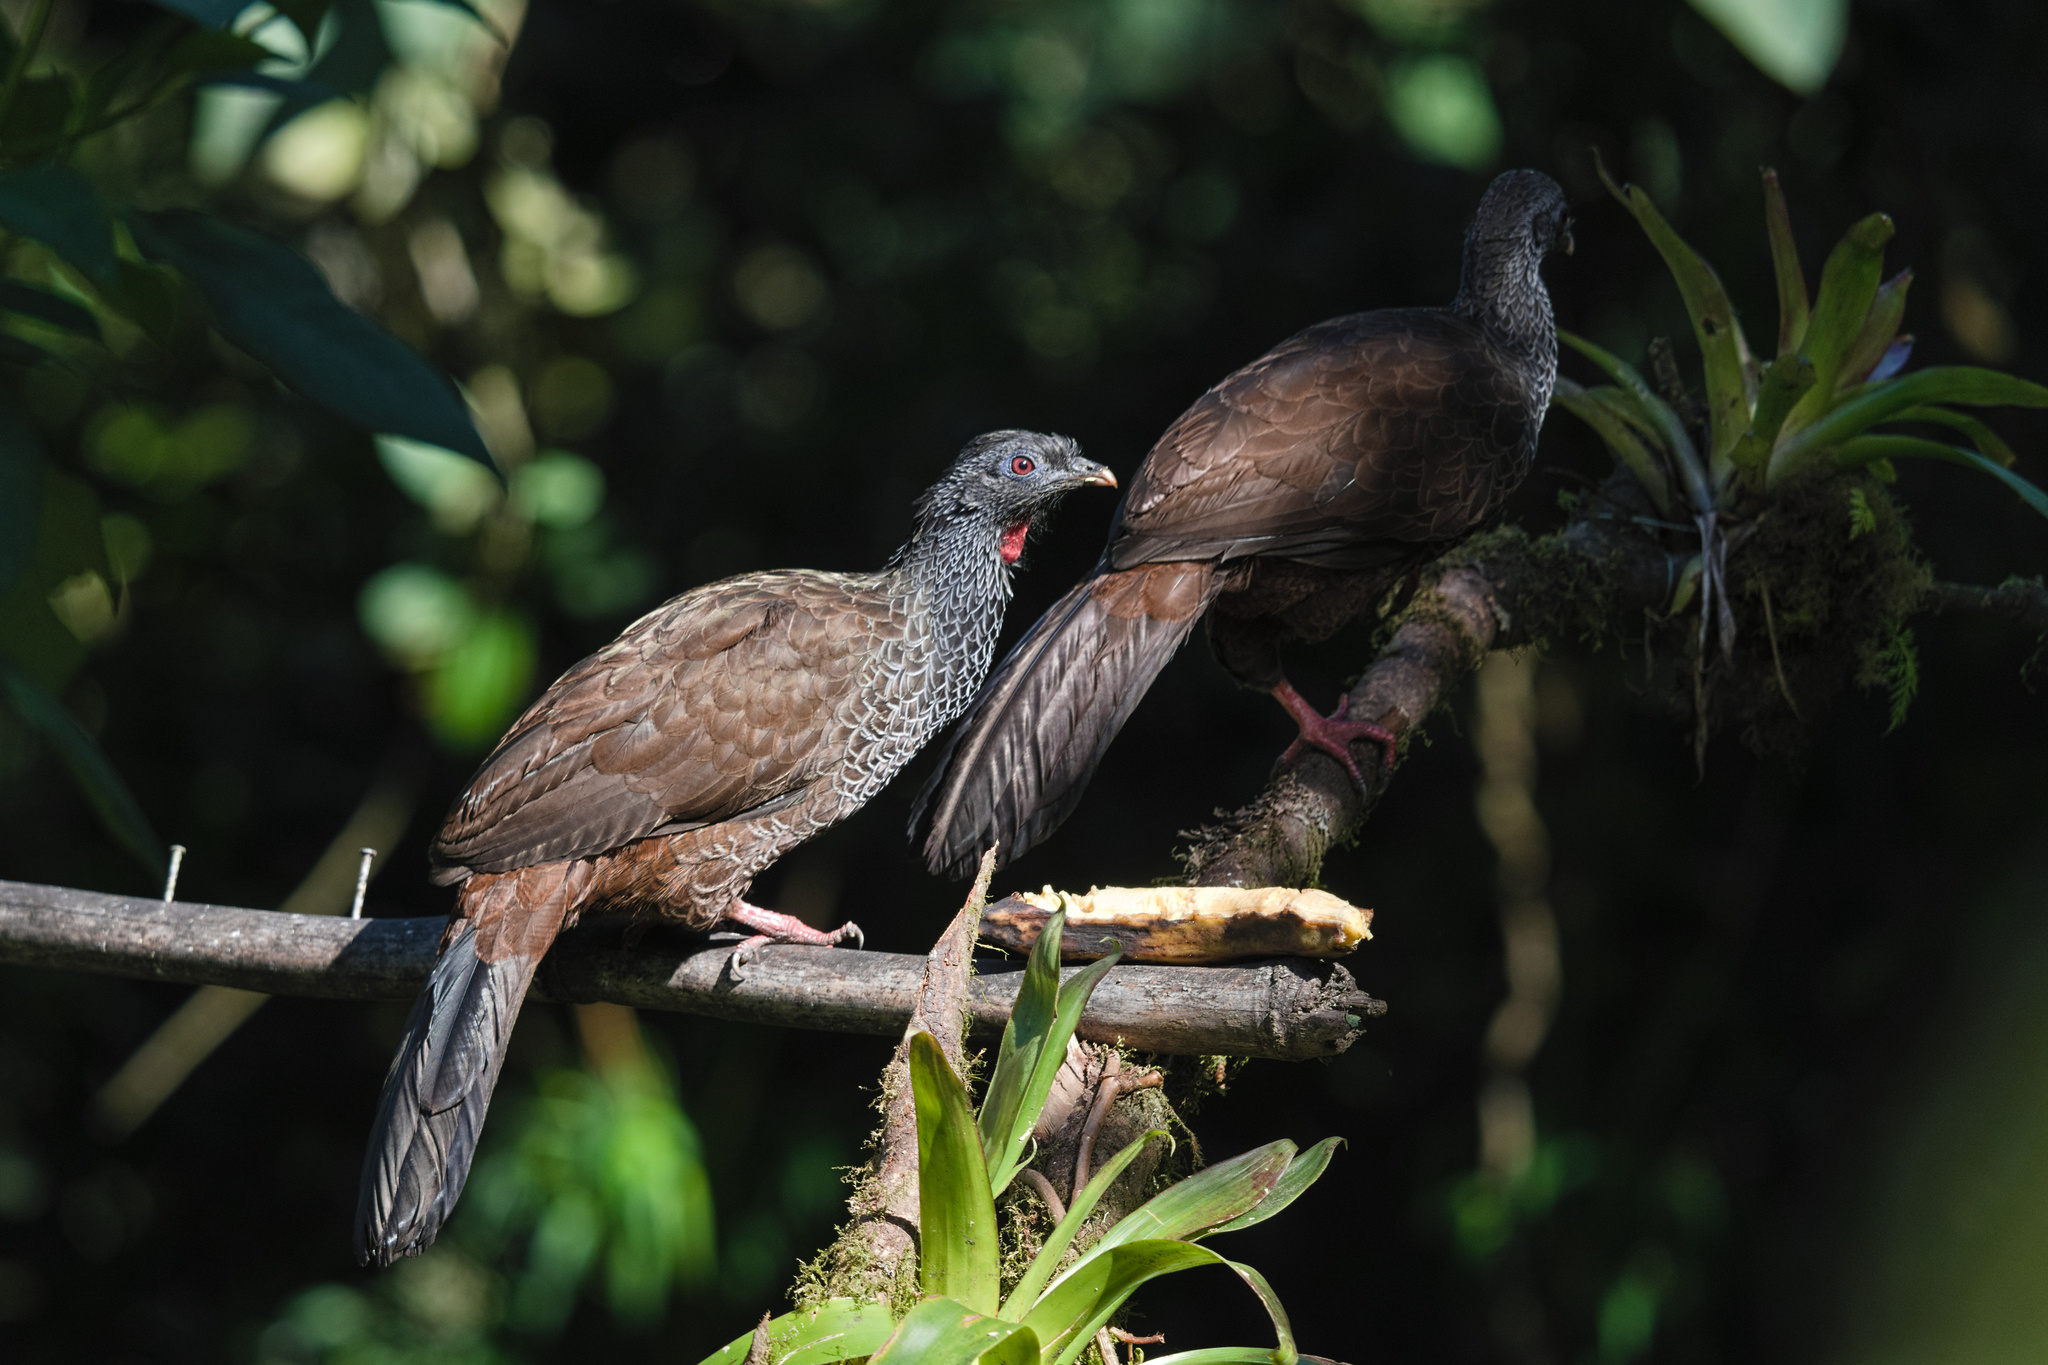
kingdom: Animalia
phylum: Chordata
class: Aves
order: Galliformes
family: Cracidae
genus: Penelope
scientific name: Penelope montagnii
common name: Andean guan
